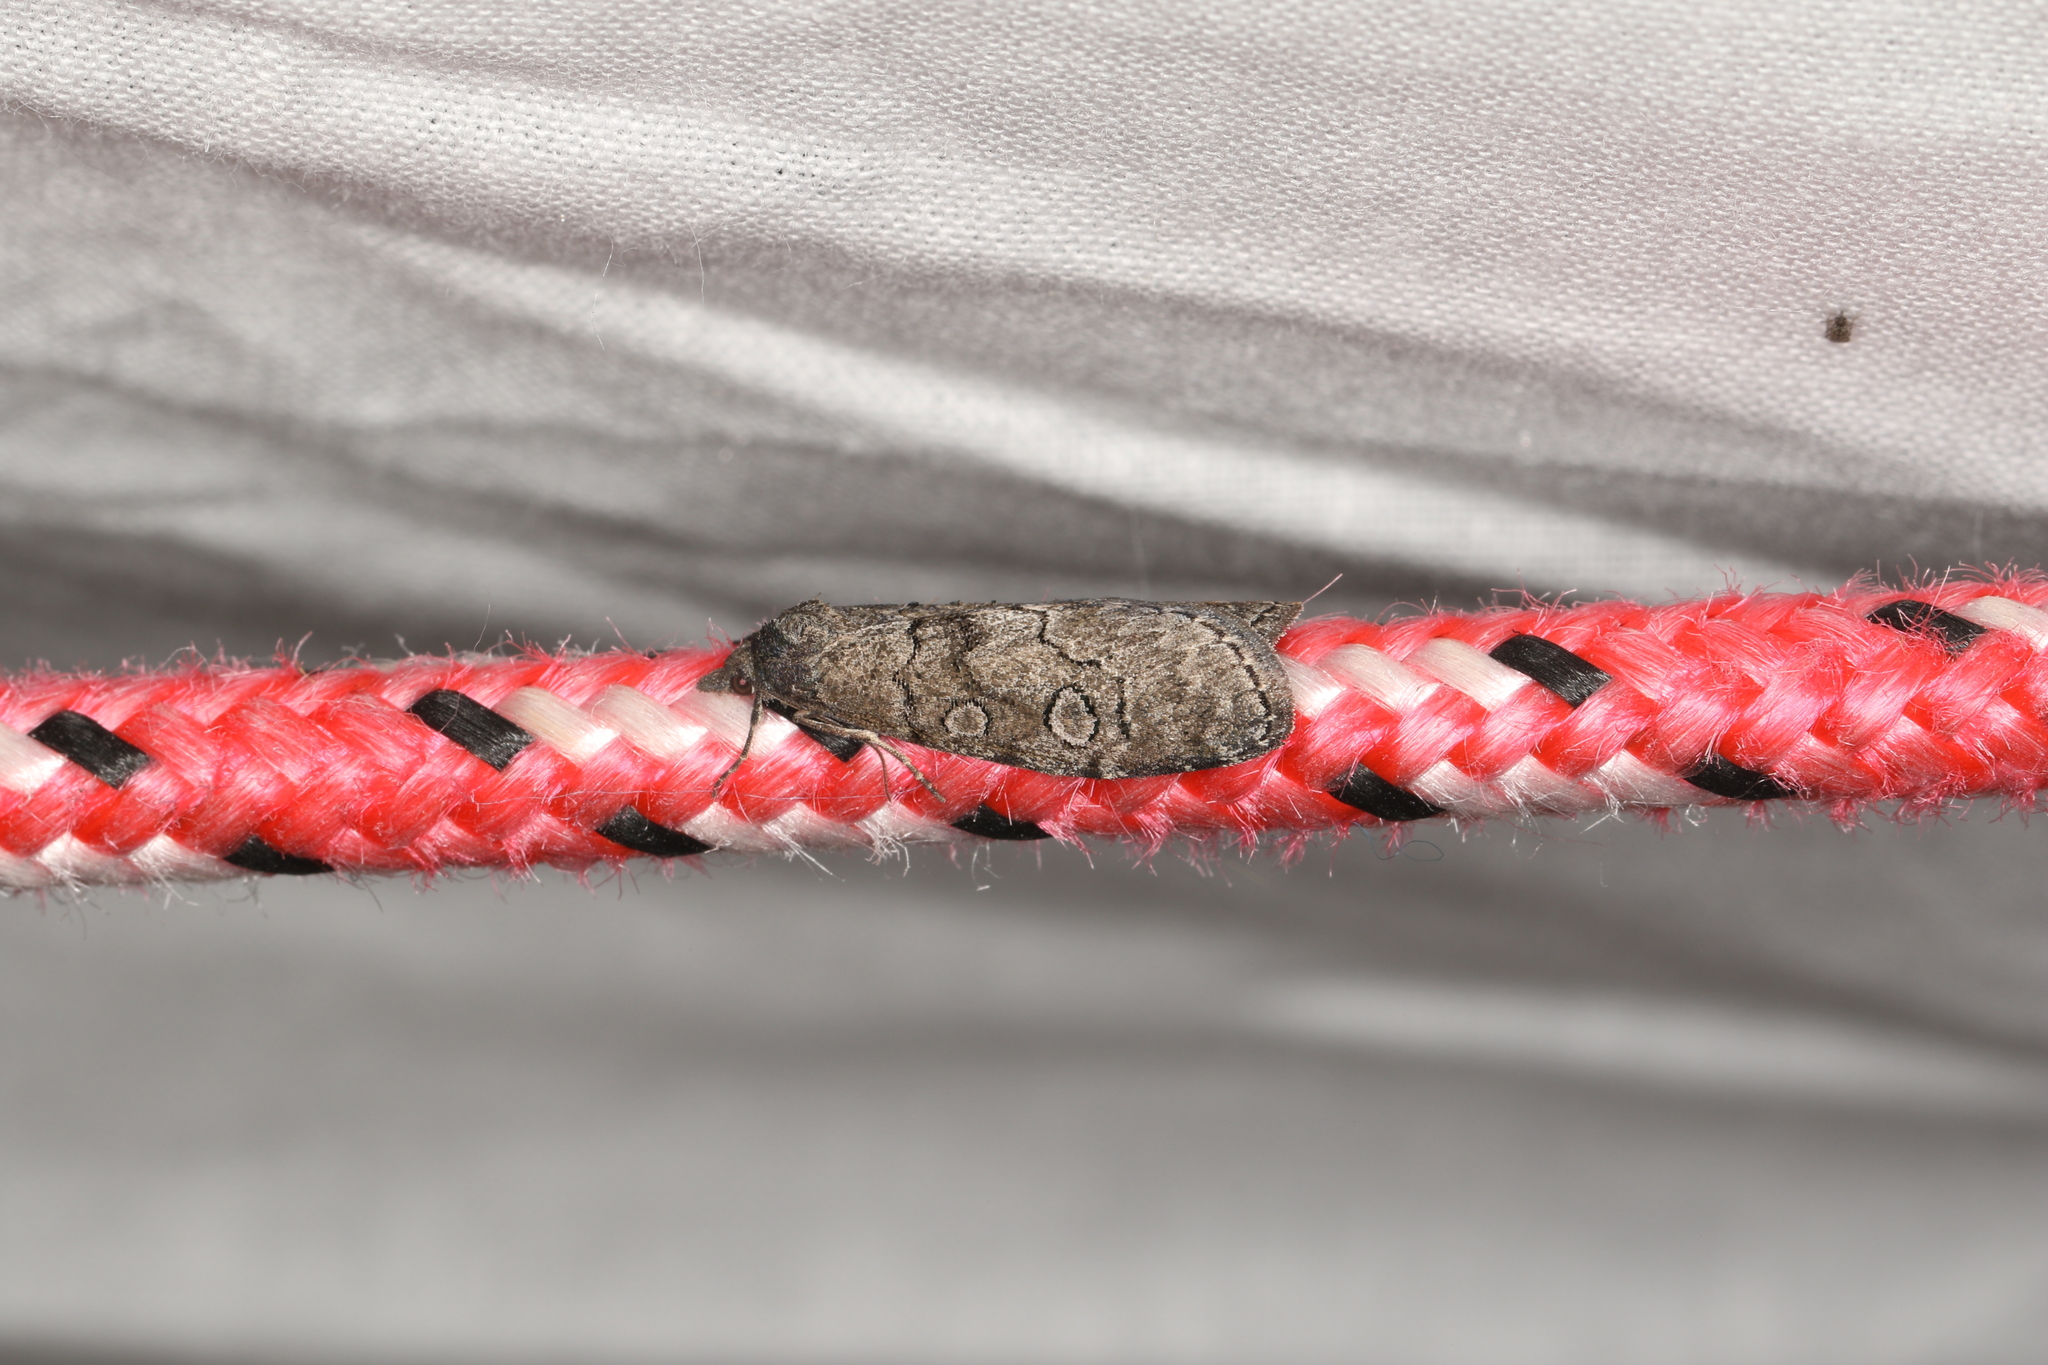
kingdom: Animalia
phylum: Arthropoda
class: Insecta
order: Lepidoptera
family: Notodontidae
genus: Stauropus
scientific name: Stauropus
